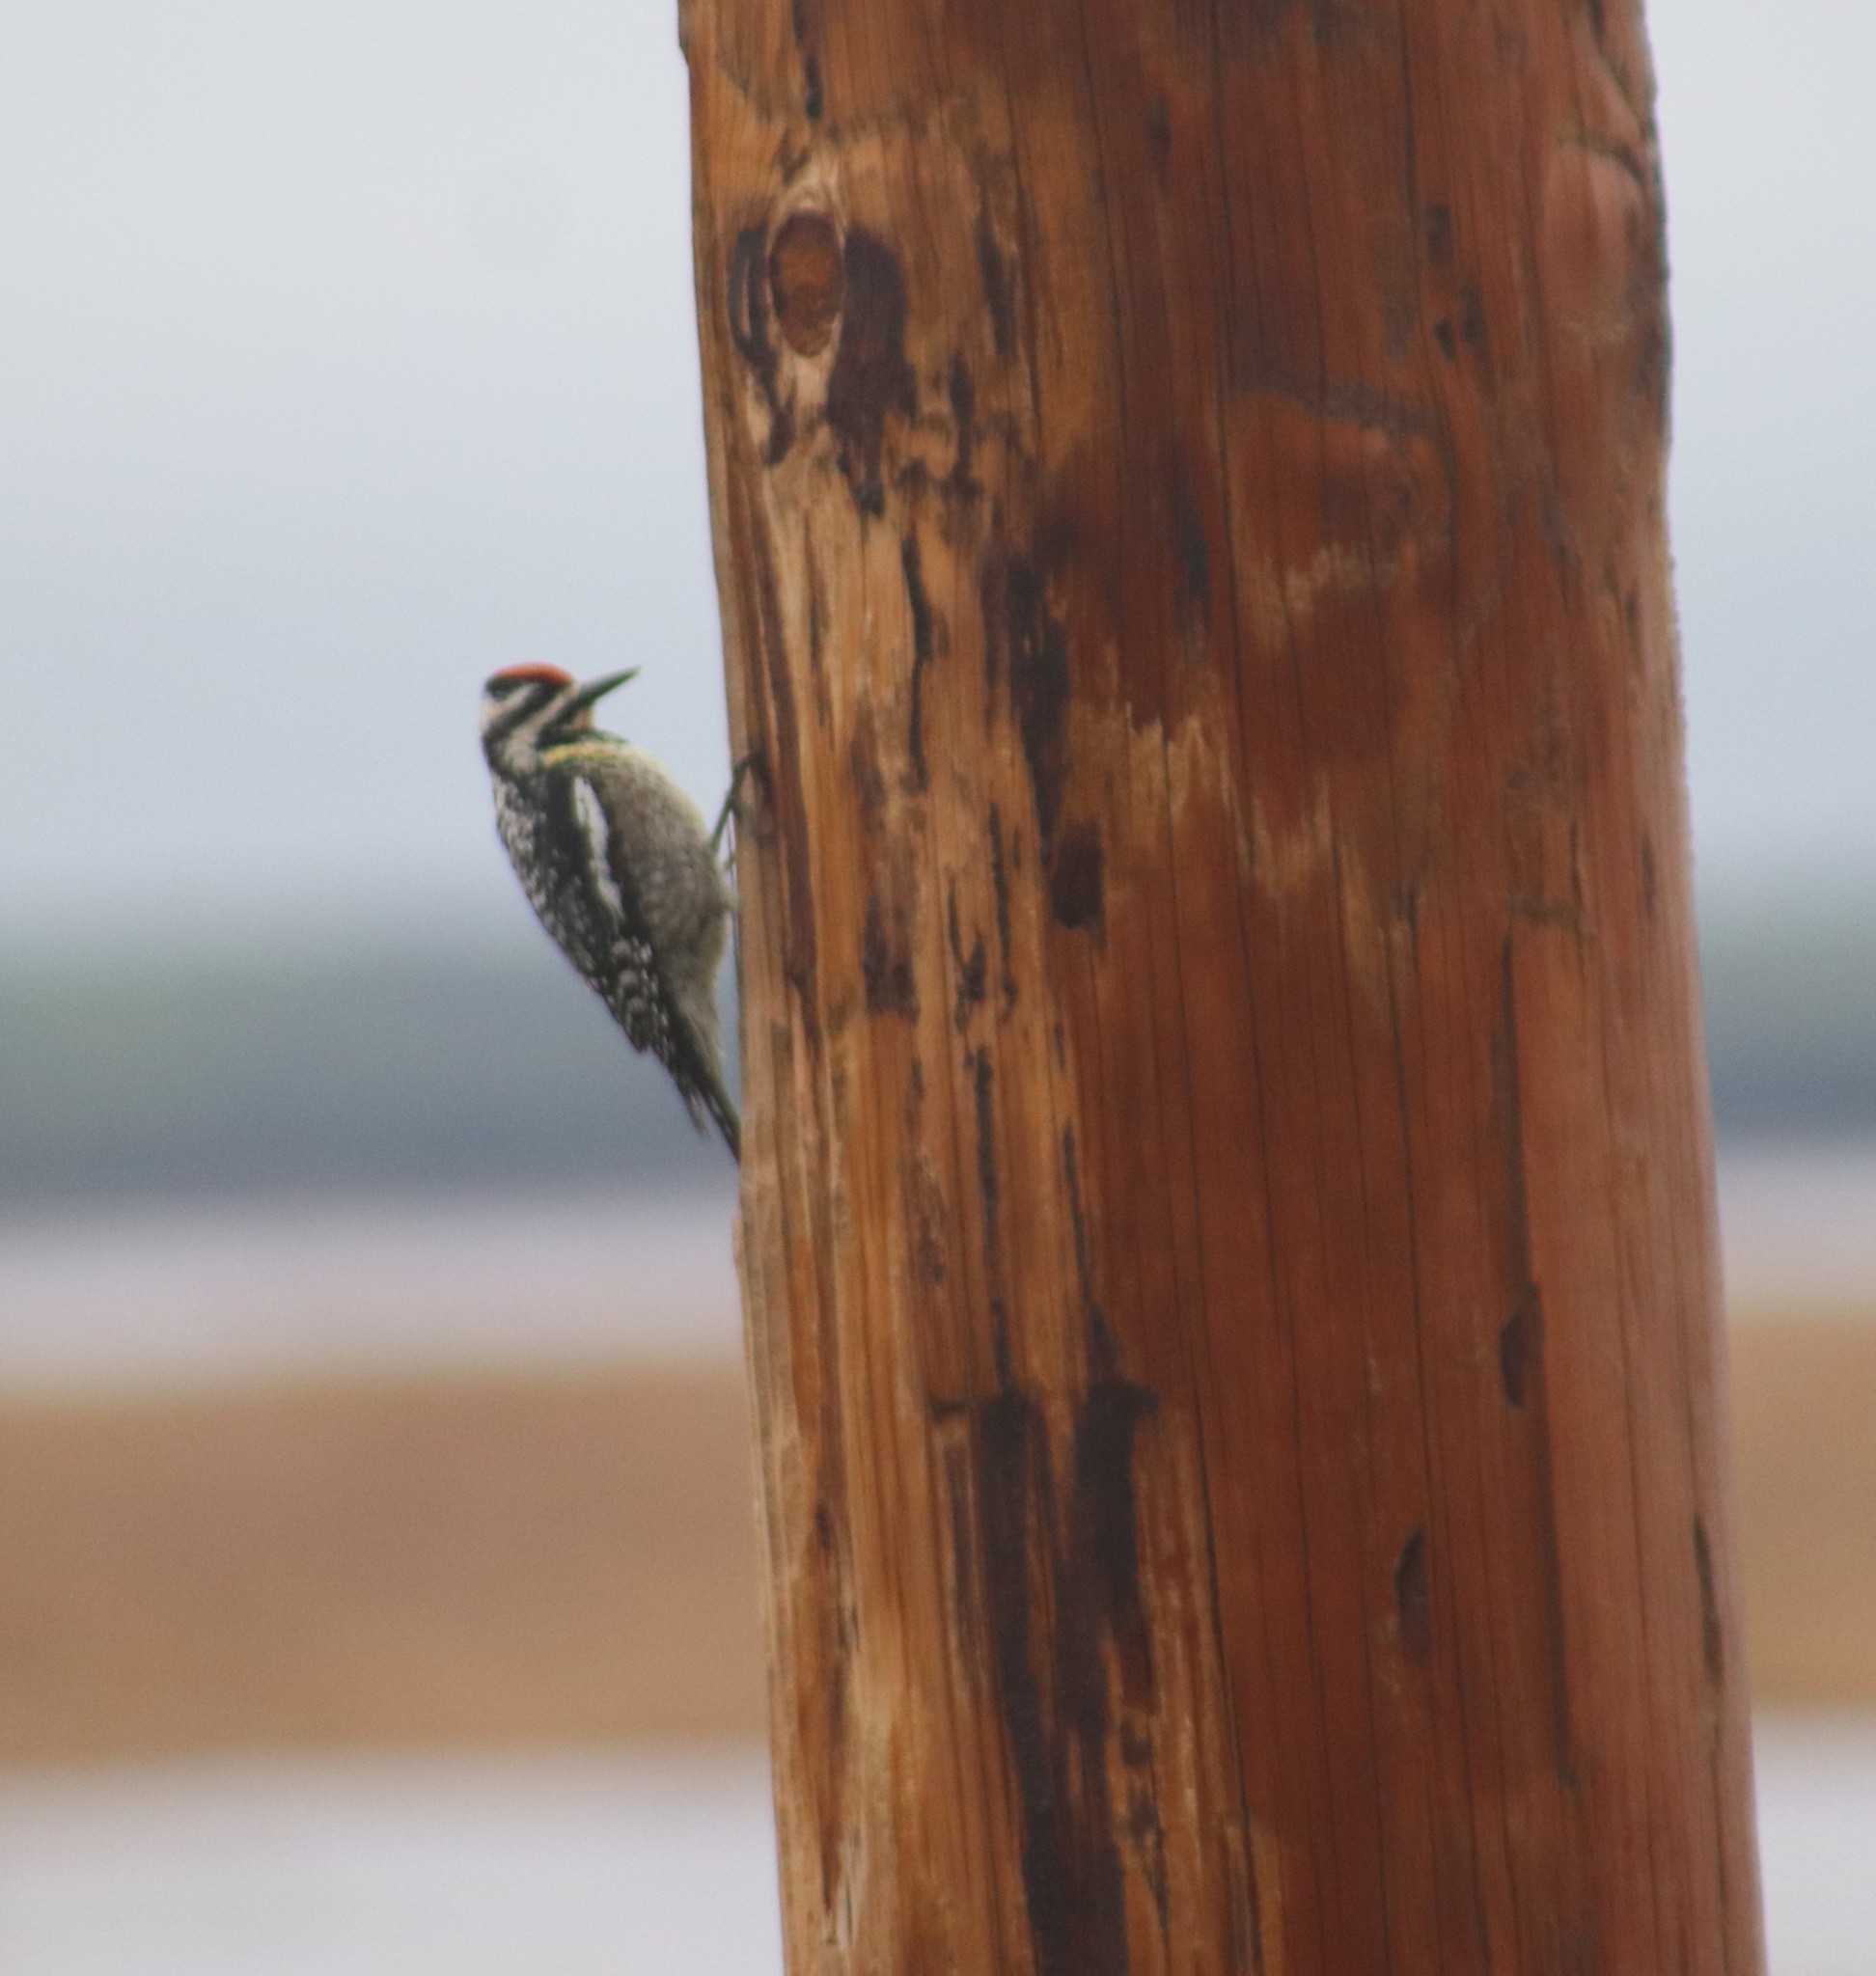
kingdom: Animalia
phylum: Chordata
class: Aves
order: Piciformes
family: Picidae
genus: Sphyrapicus
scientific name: Sphyrapicus varius
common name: Yellow-bellied sapsucker
